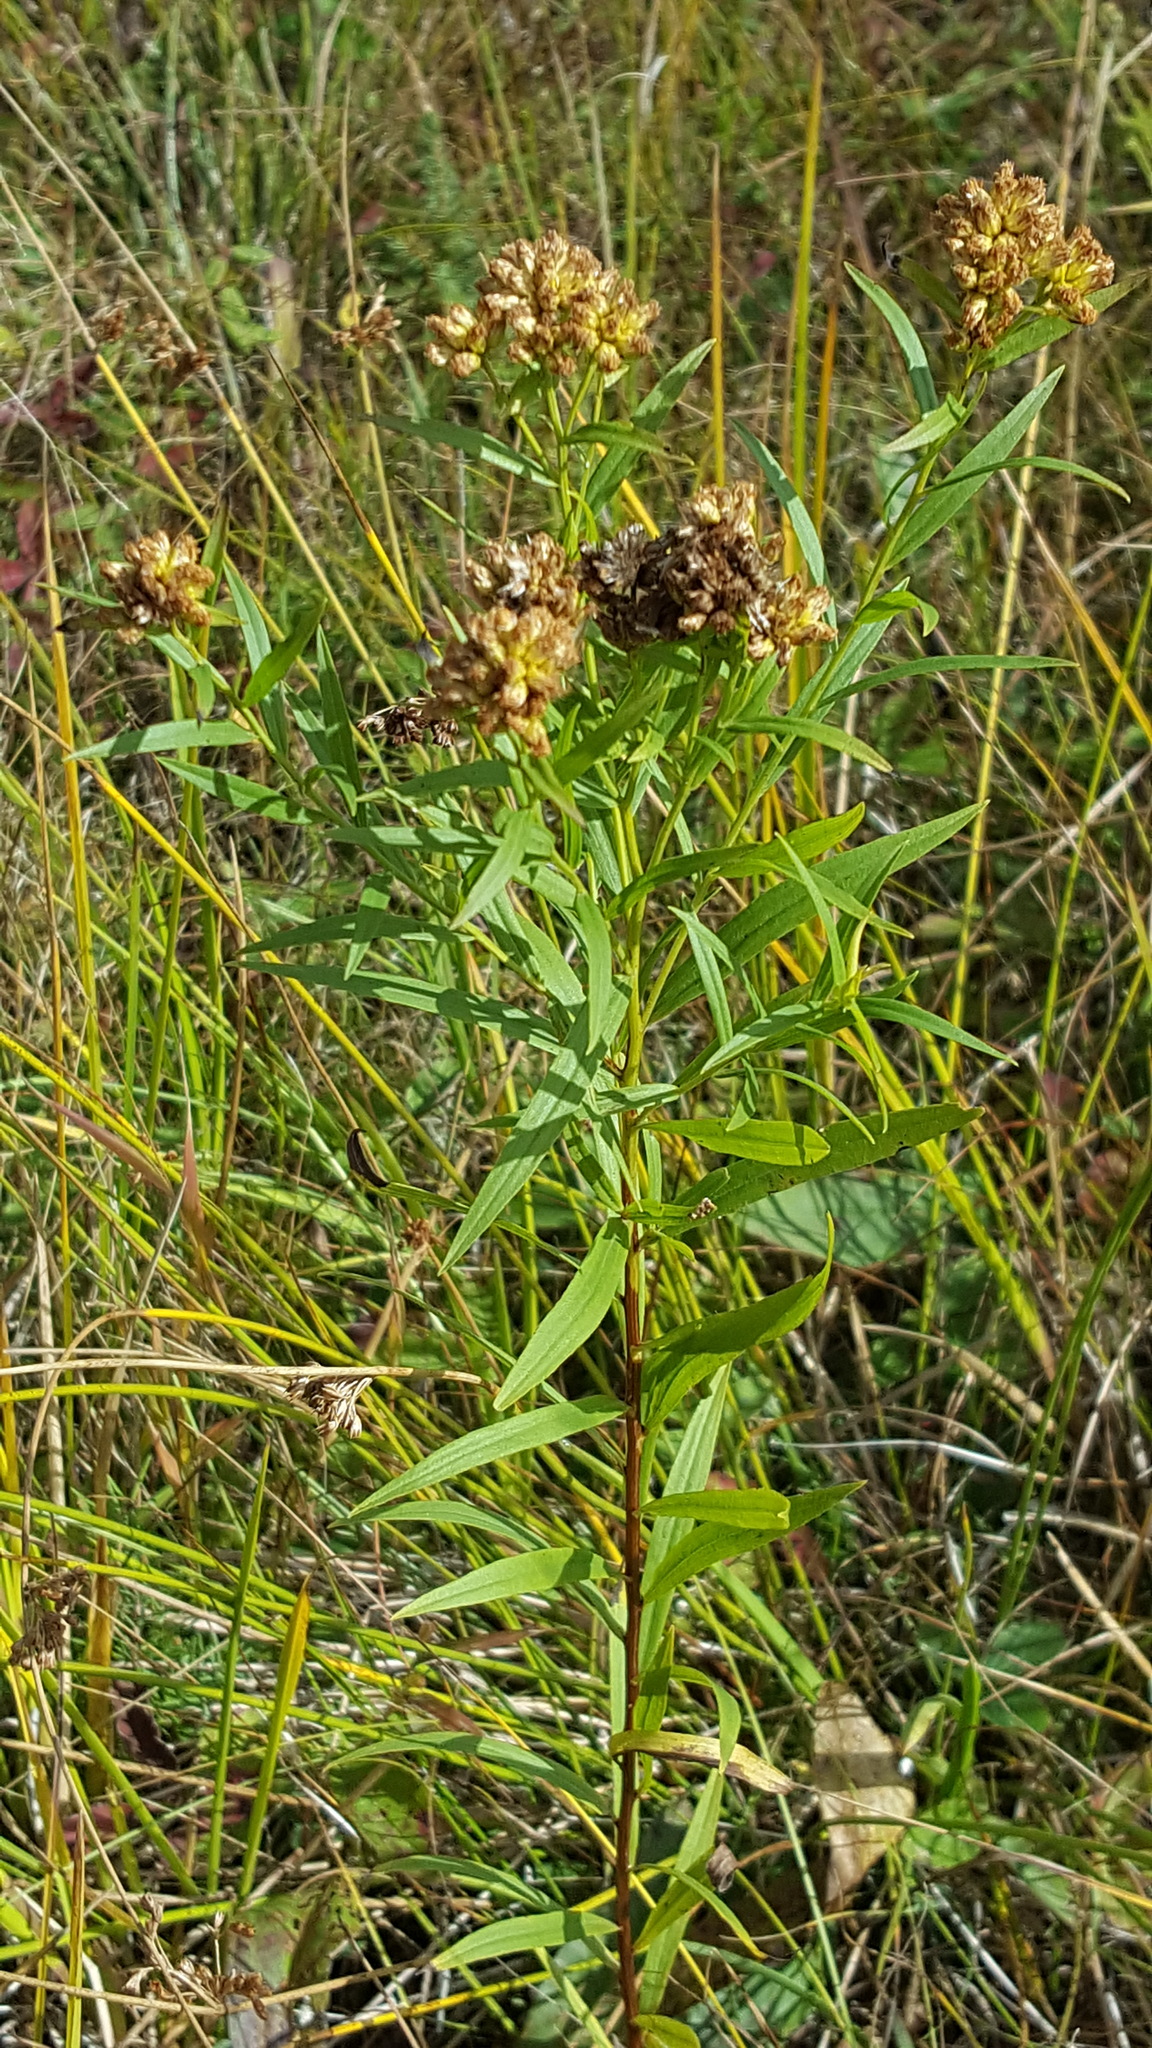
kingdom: Plantae
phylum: Tracheophyta
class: Magnoliopsida
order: Asterales
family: Asteraceae
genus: Euthamia
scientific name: Euthamia graminifolia
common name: Common goldentop
